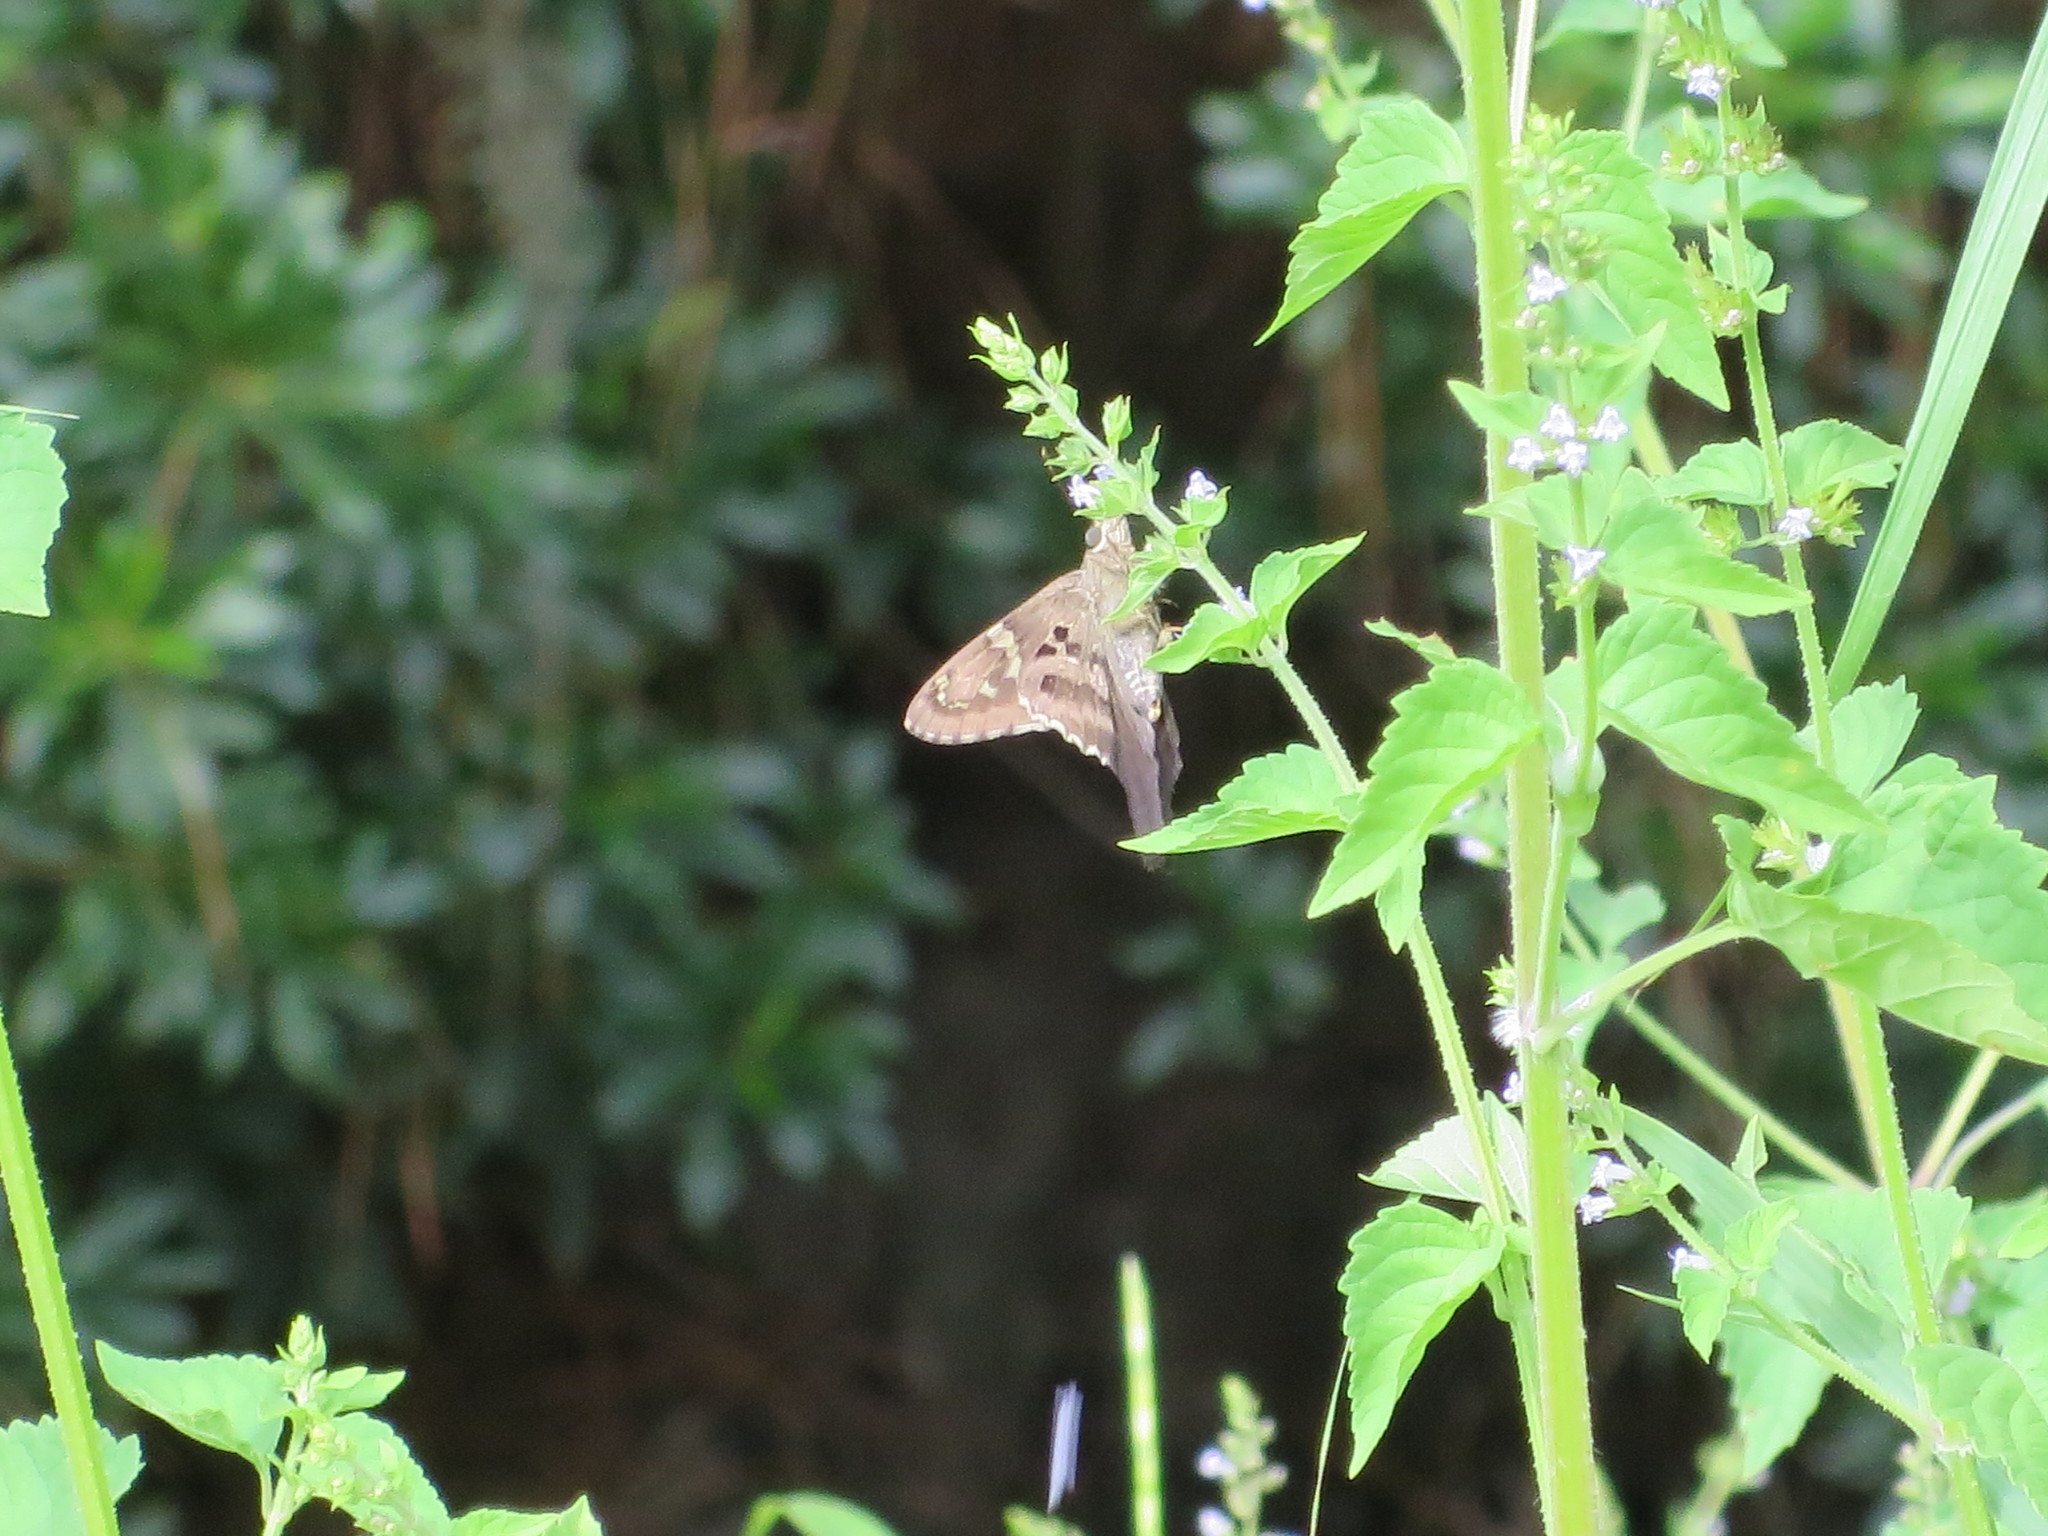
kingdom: Plantae
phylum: Tracheophyta
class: Magnoliopsida
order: Lamiales
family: Lamiaceae
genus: Cantinoa
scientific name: Cantinoa mutabilis
